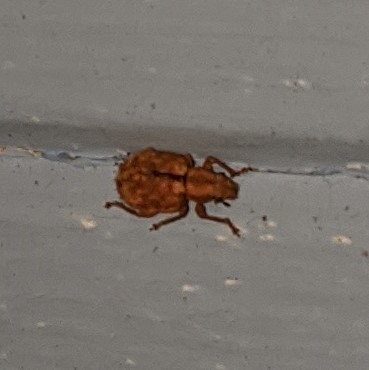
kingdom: Animalia
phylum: Arthropoda
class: Insecta
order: Coleoptera
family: Curculionidae
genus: Strophosoma
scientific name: Strophosoma melanogrammum
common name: Weevil
